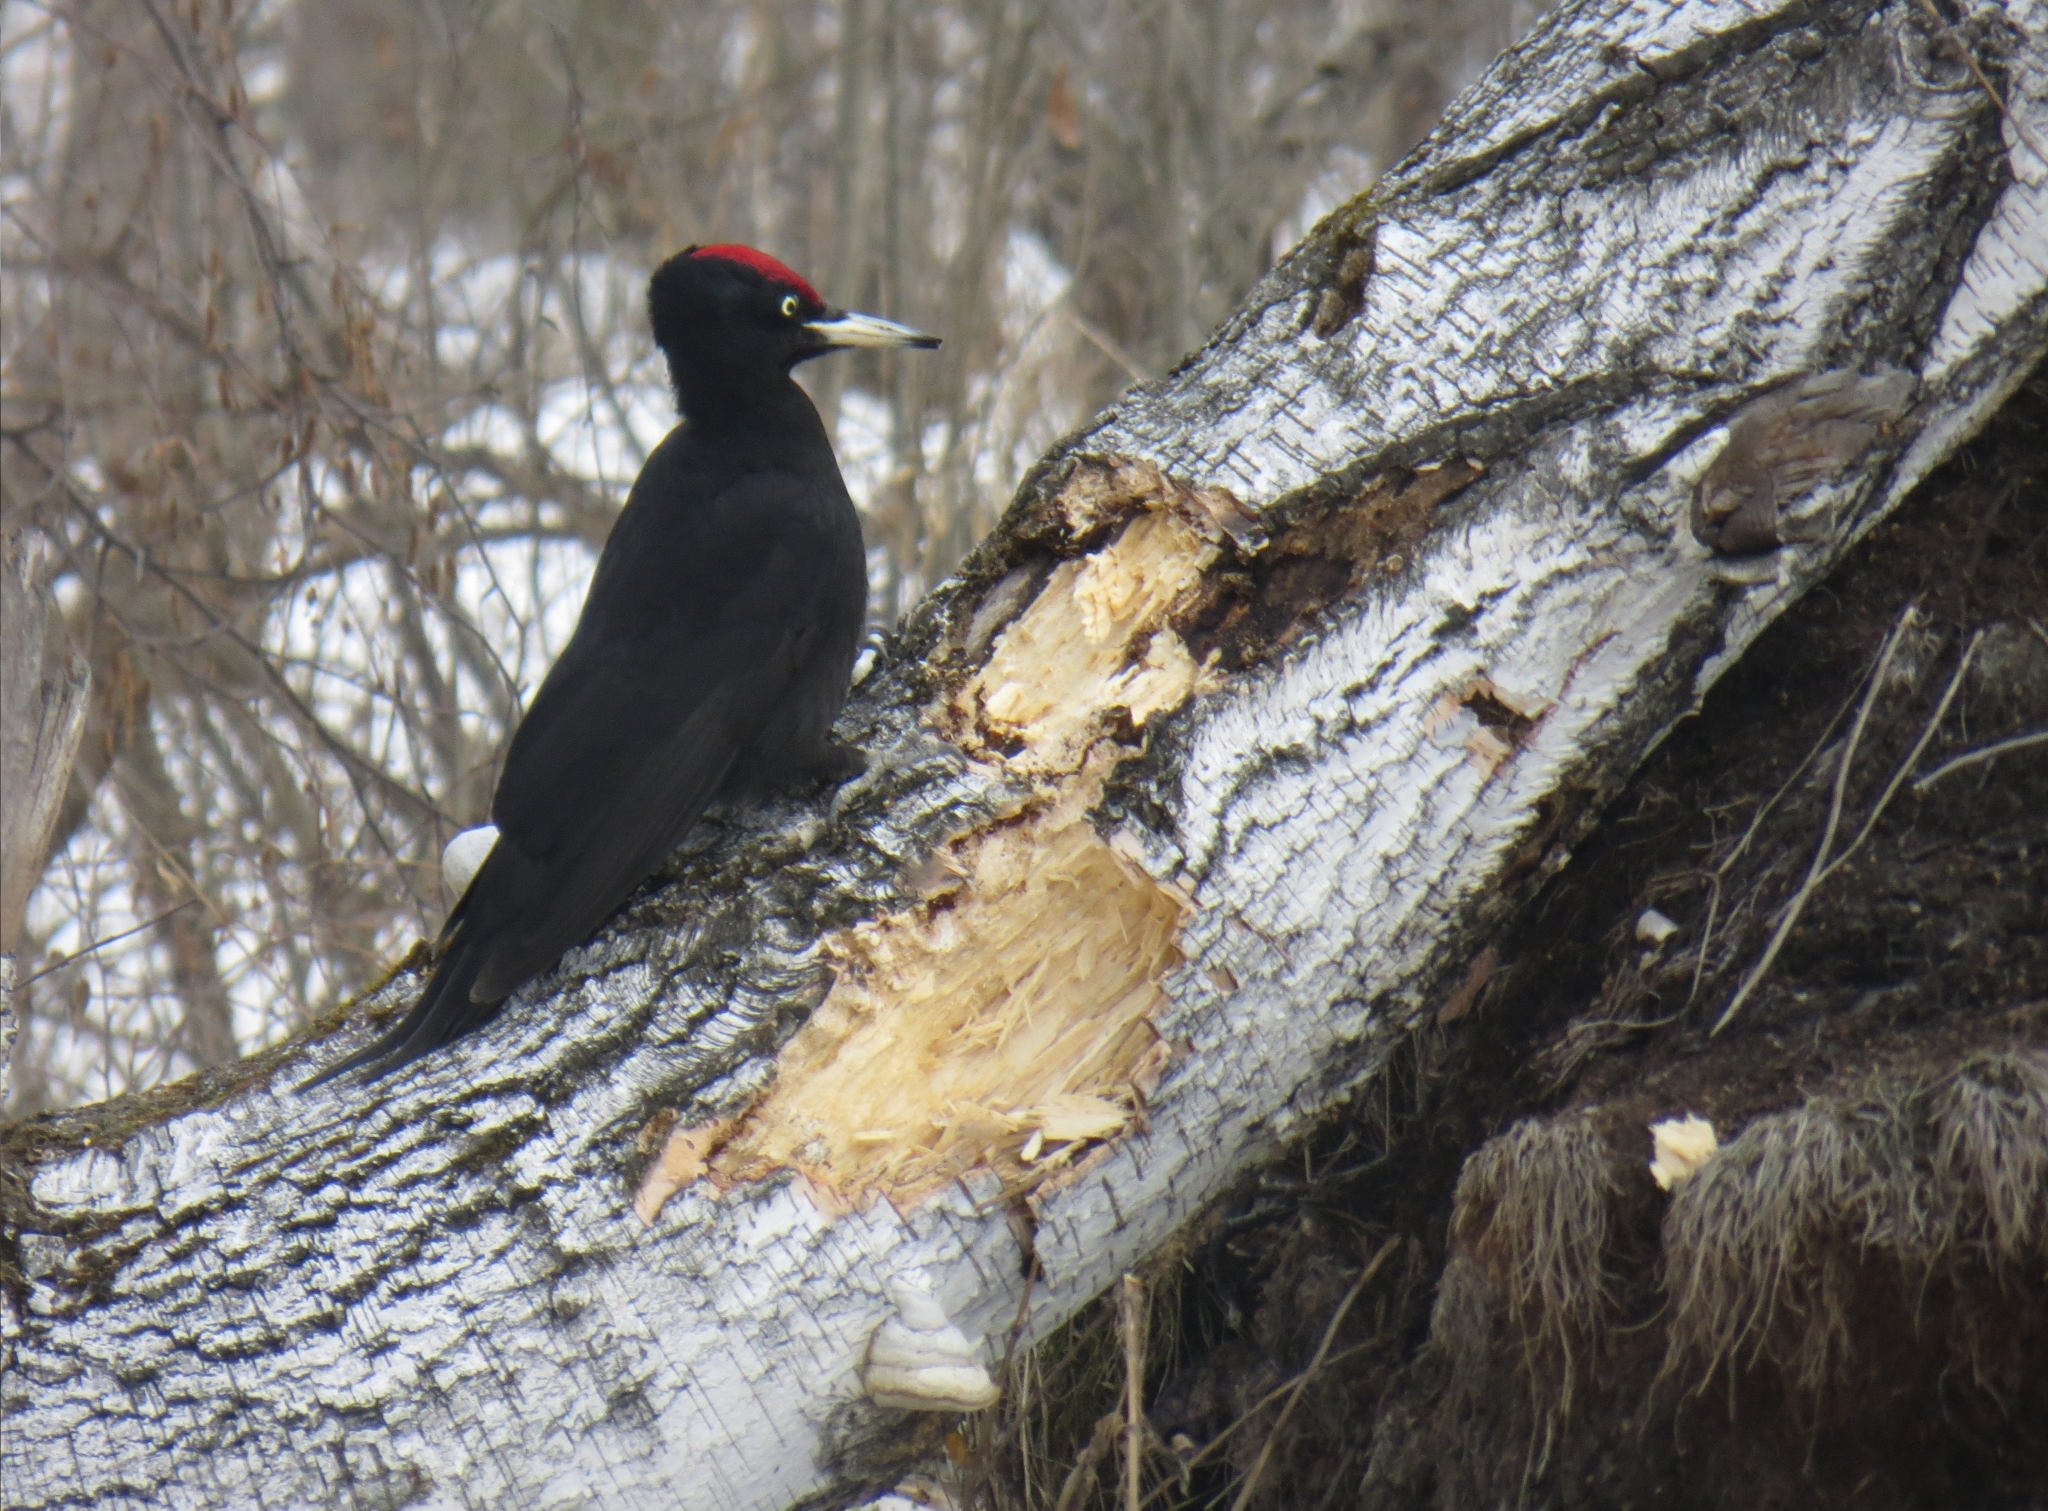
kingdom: Animalia
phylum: Chordata
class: Aves
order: Piciformes
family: Picidae
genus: Dryocopus
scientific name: Dryocopus martius
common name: Black woodpecker
